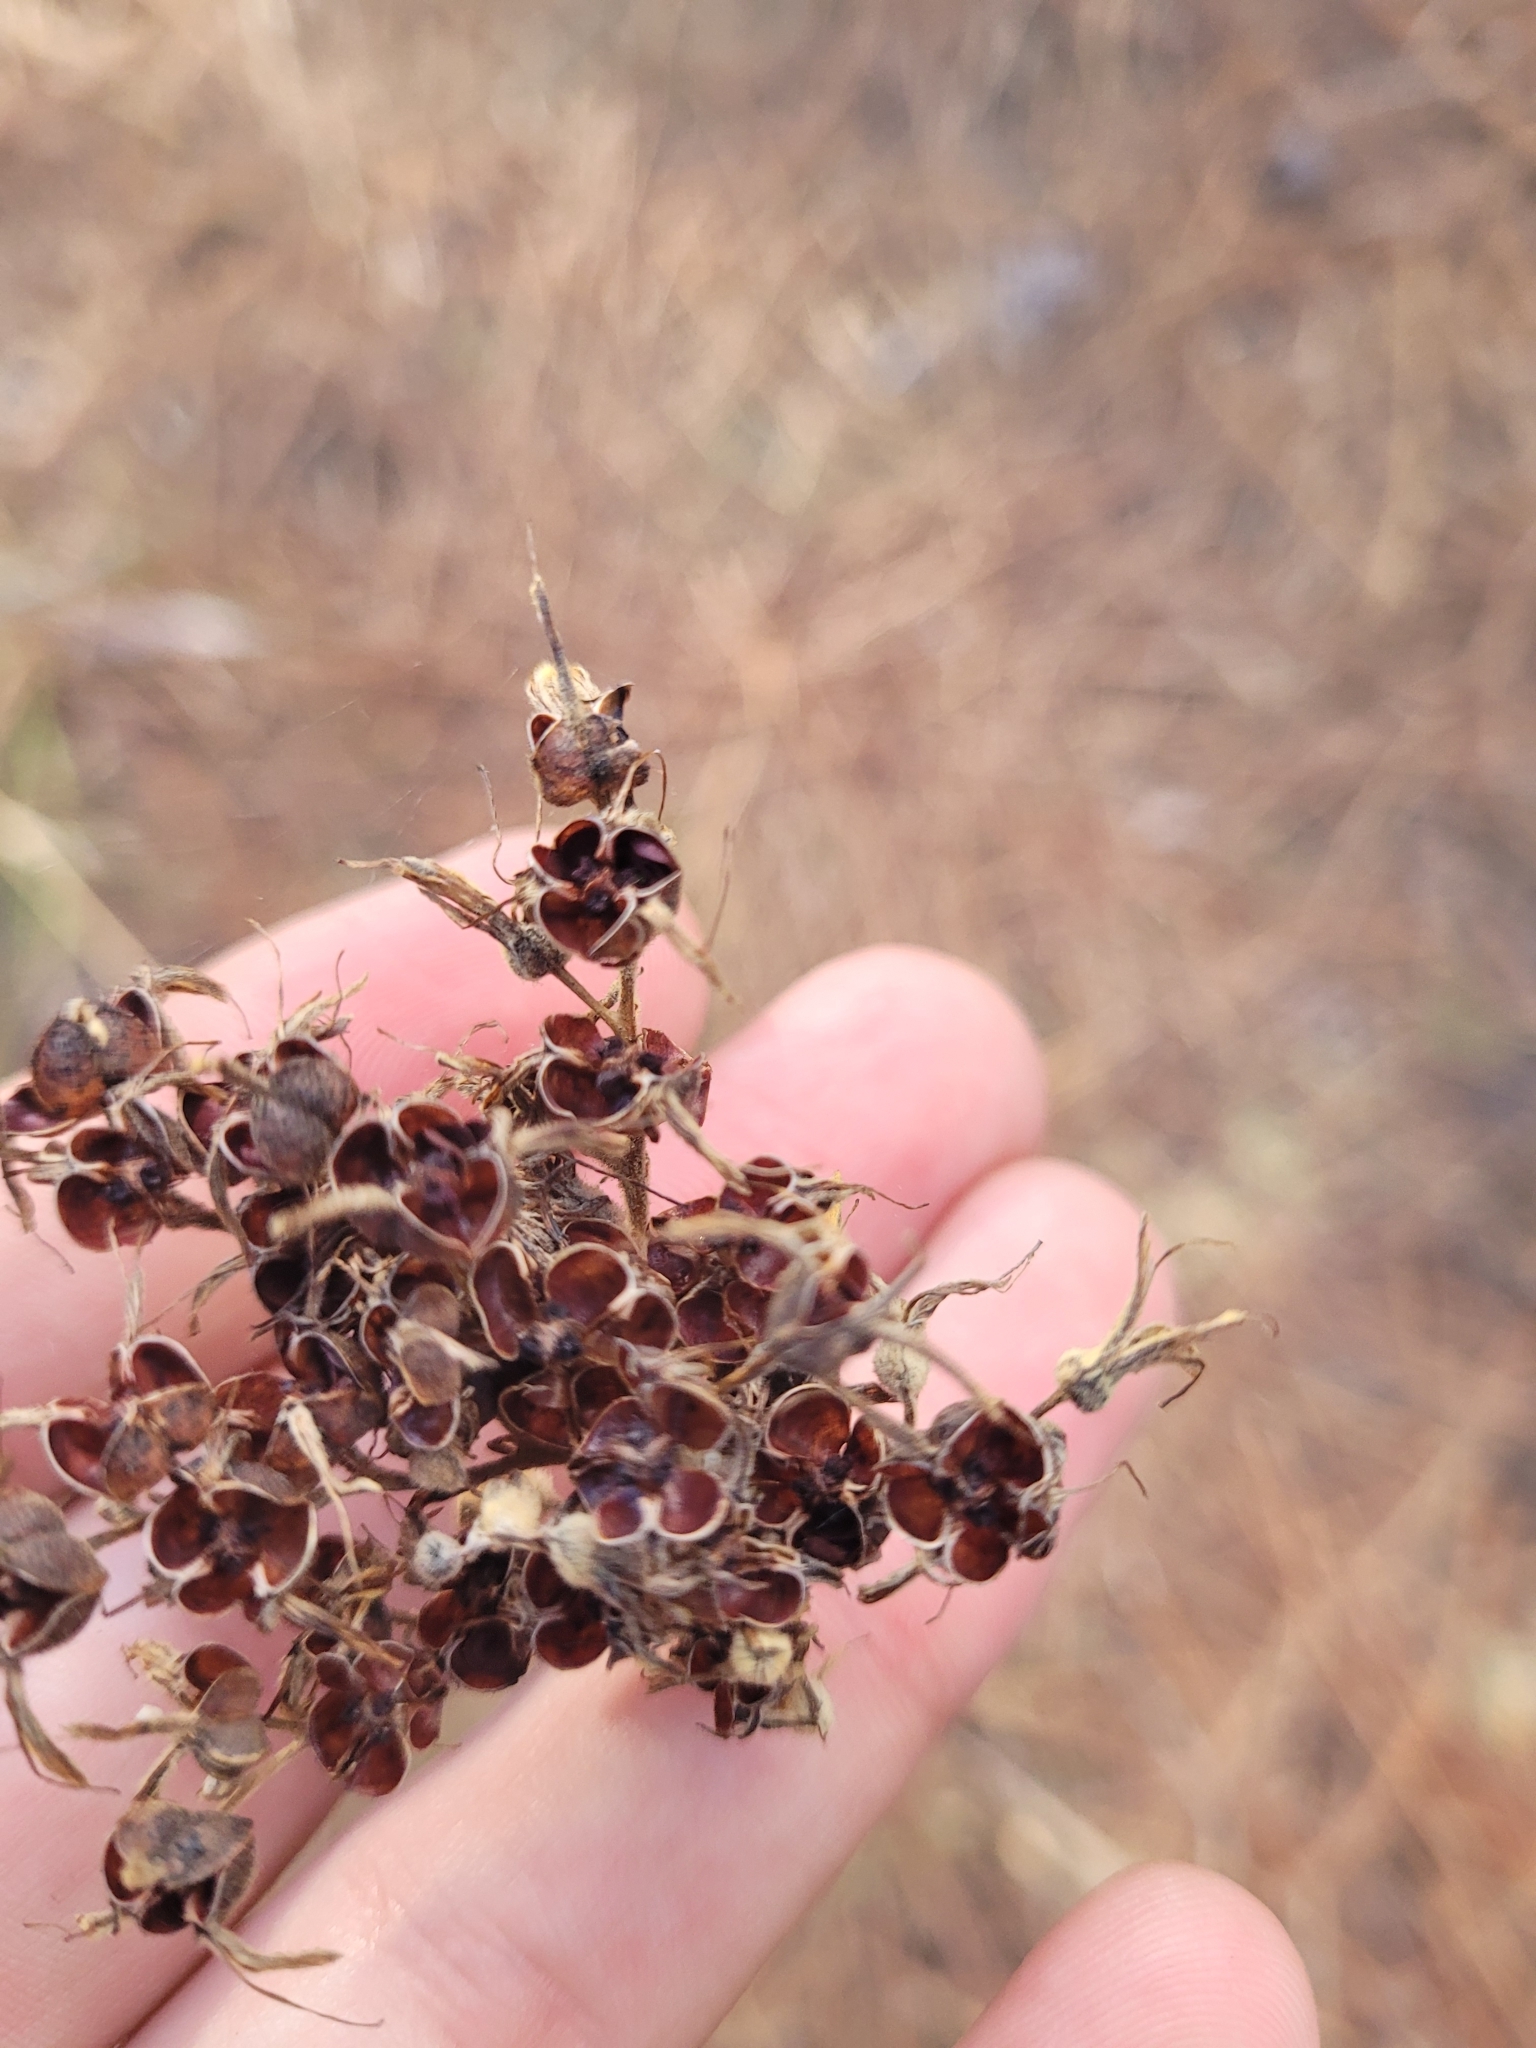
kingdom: Plantae
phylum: Tracheophyta
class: Liliopsida
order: Commelinales
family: Haemodoraceae
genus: Lachnanthes
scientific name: Lachnanthes caroliana
